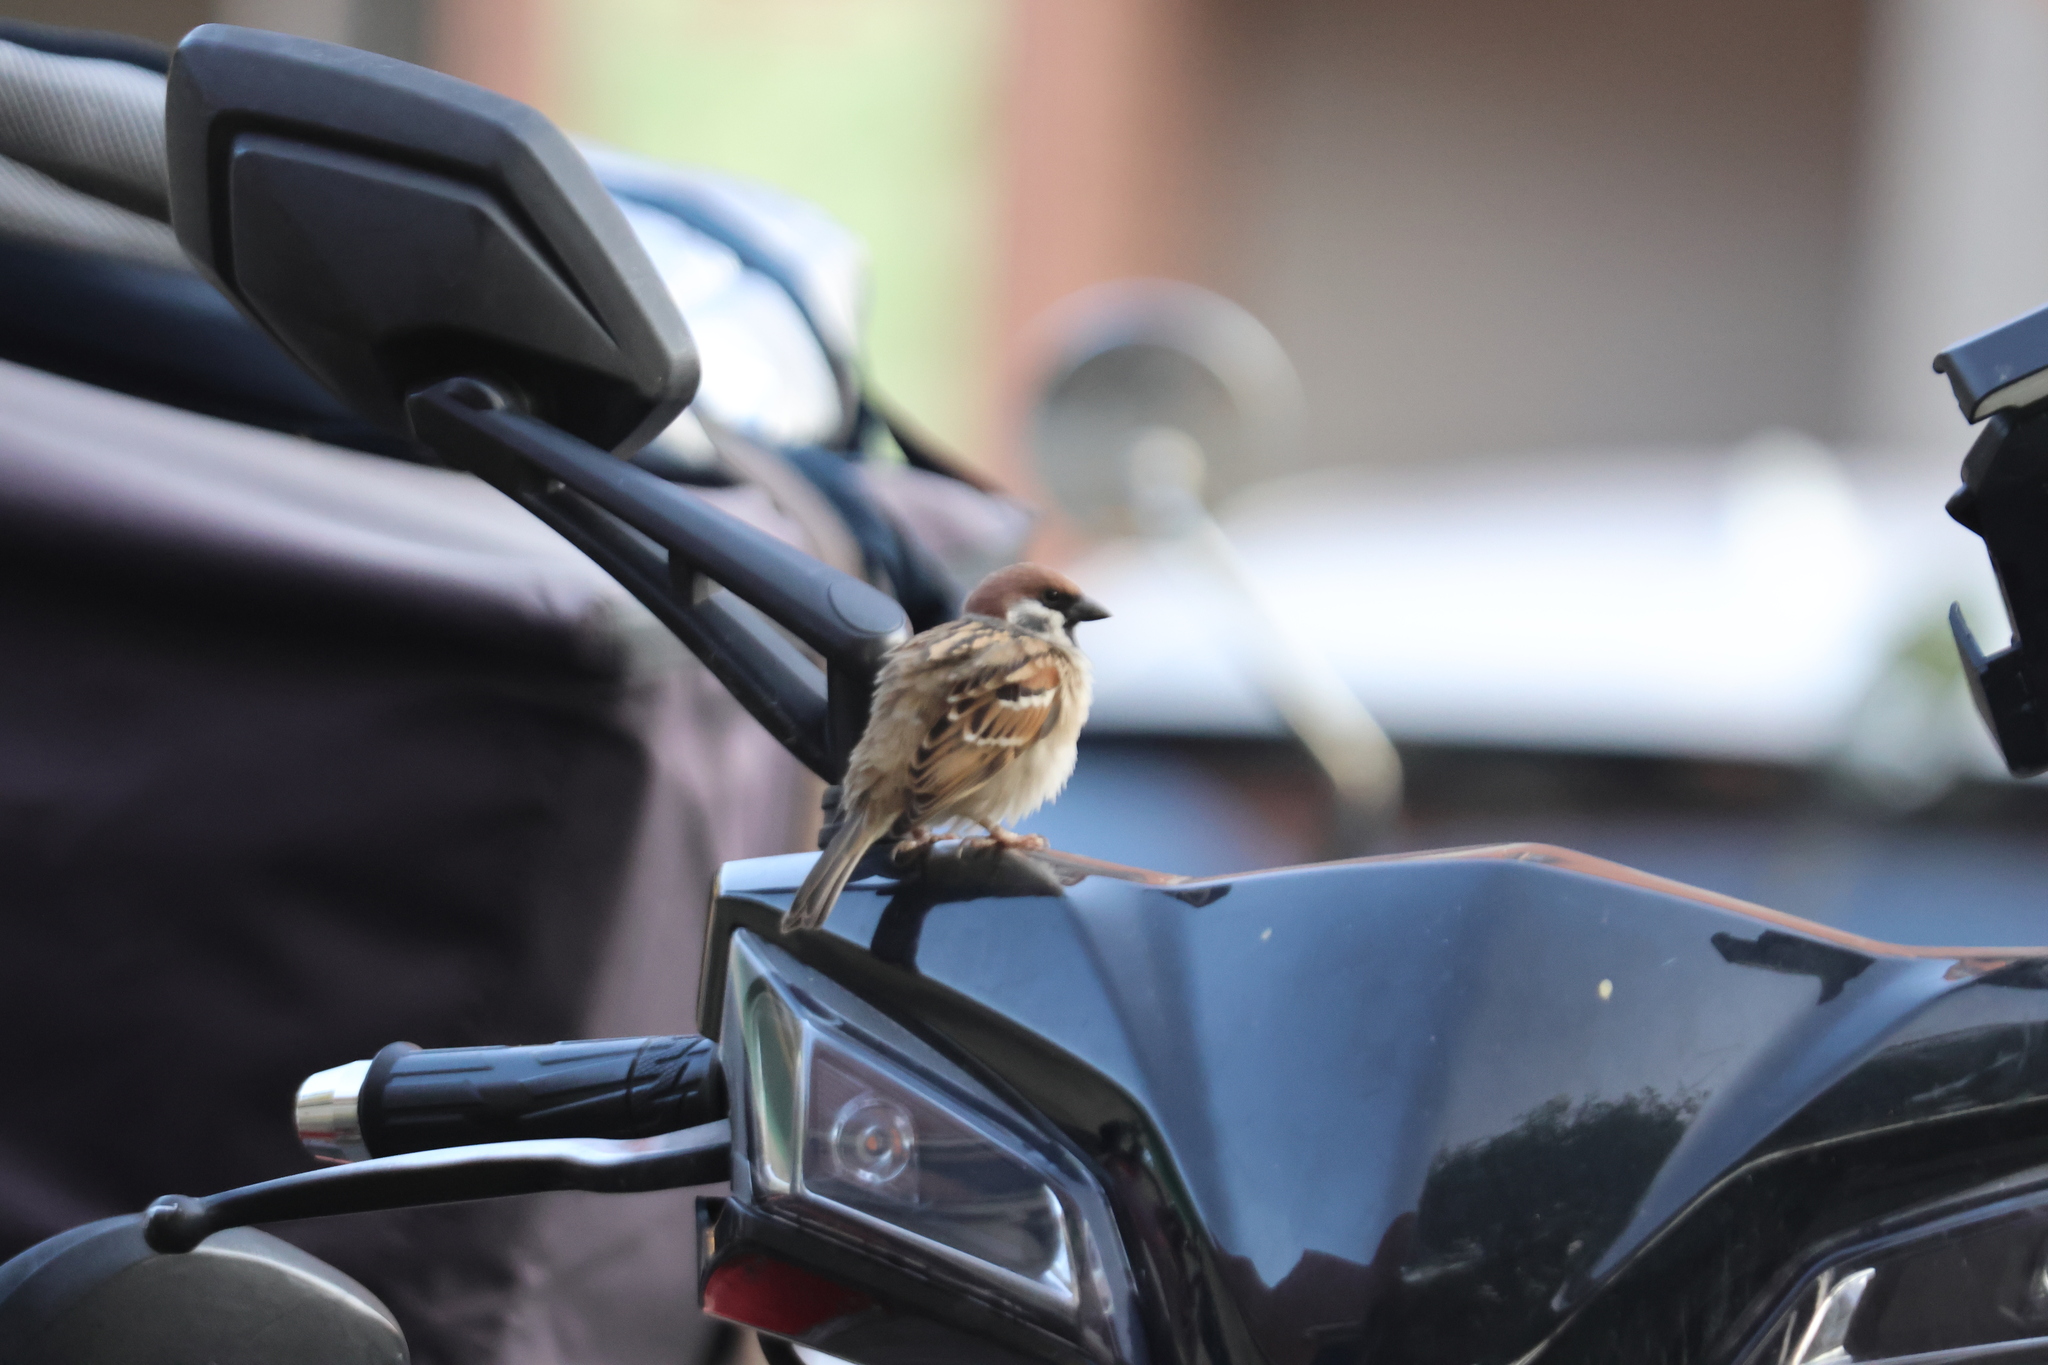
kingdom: Animalia
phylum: Chordata
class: Aves
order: Passeriformes
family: Passeridae
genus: Passer
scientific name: Passer montanus
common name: Eurasian tree sparrow
